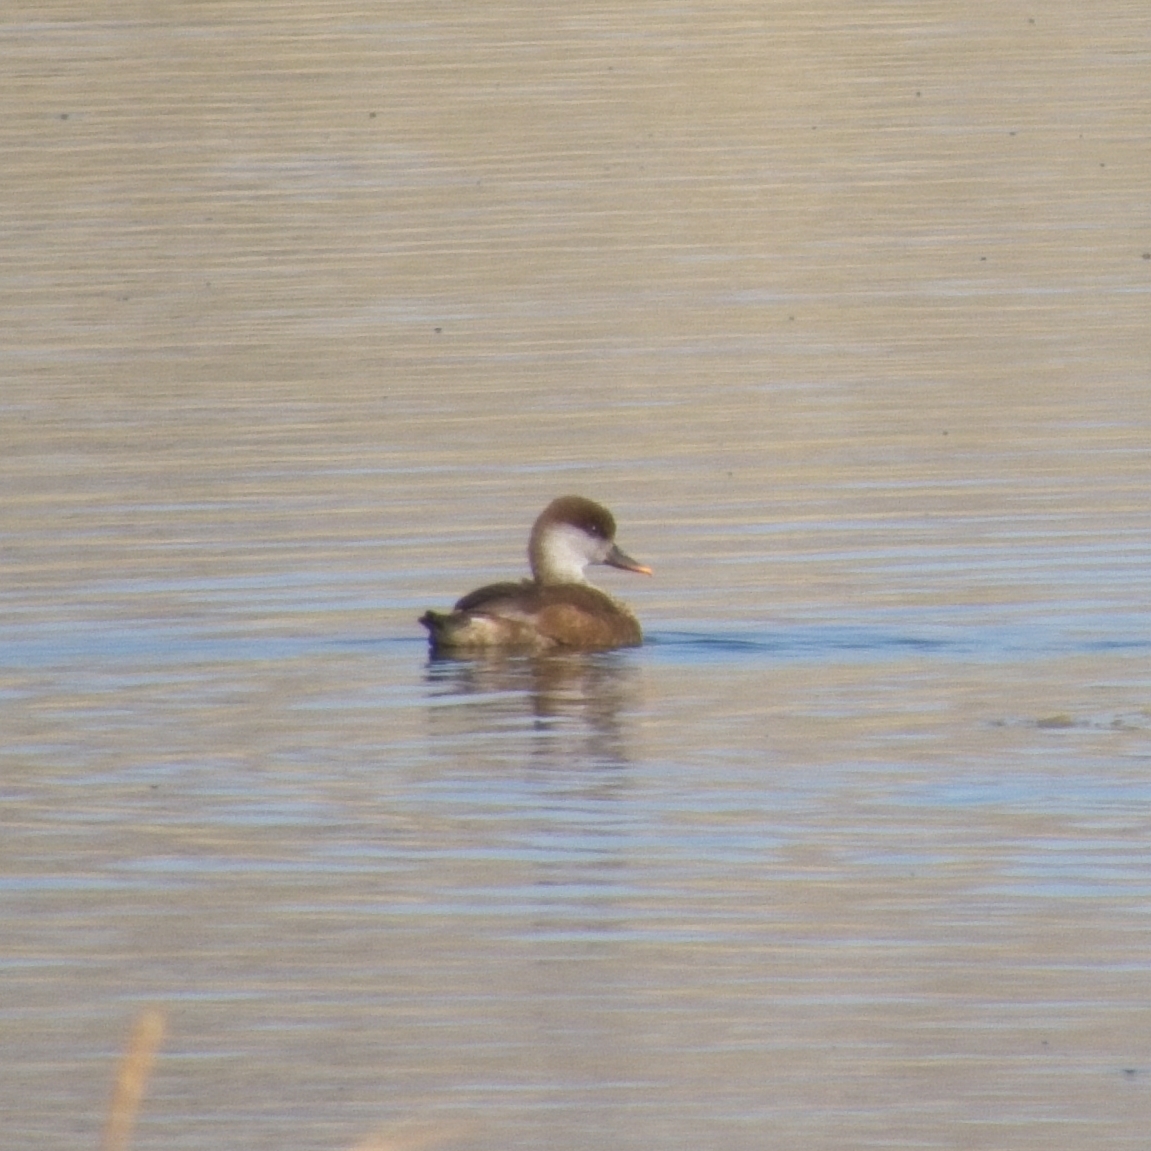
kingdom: Animalia
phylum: Chordata
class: Aves
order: Anseriformes
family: Anatidae
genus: Netta
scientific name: Netta rufina
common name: Red-crested pochard
